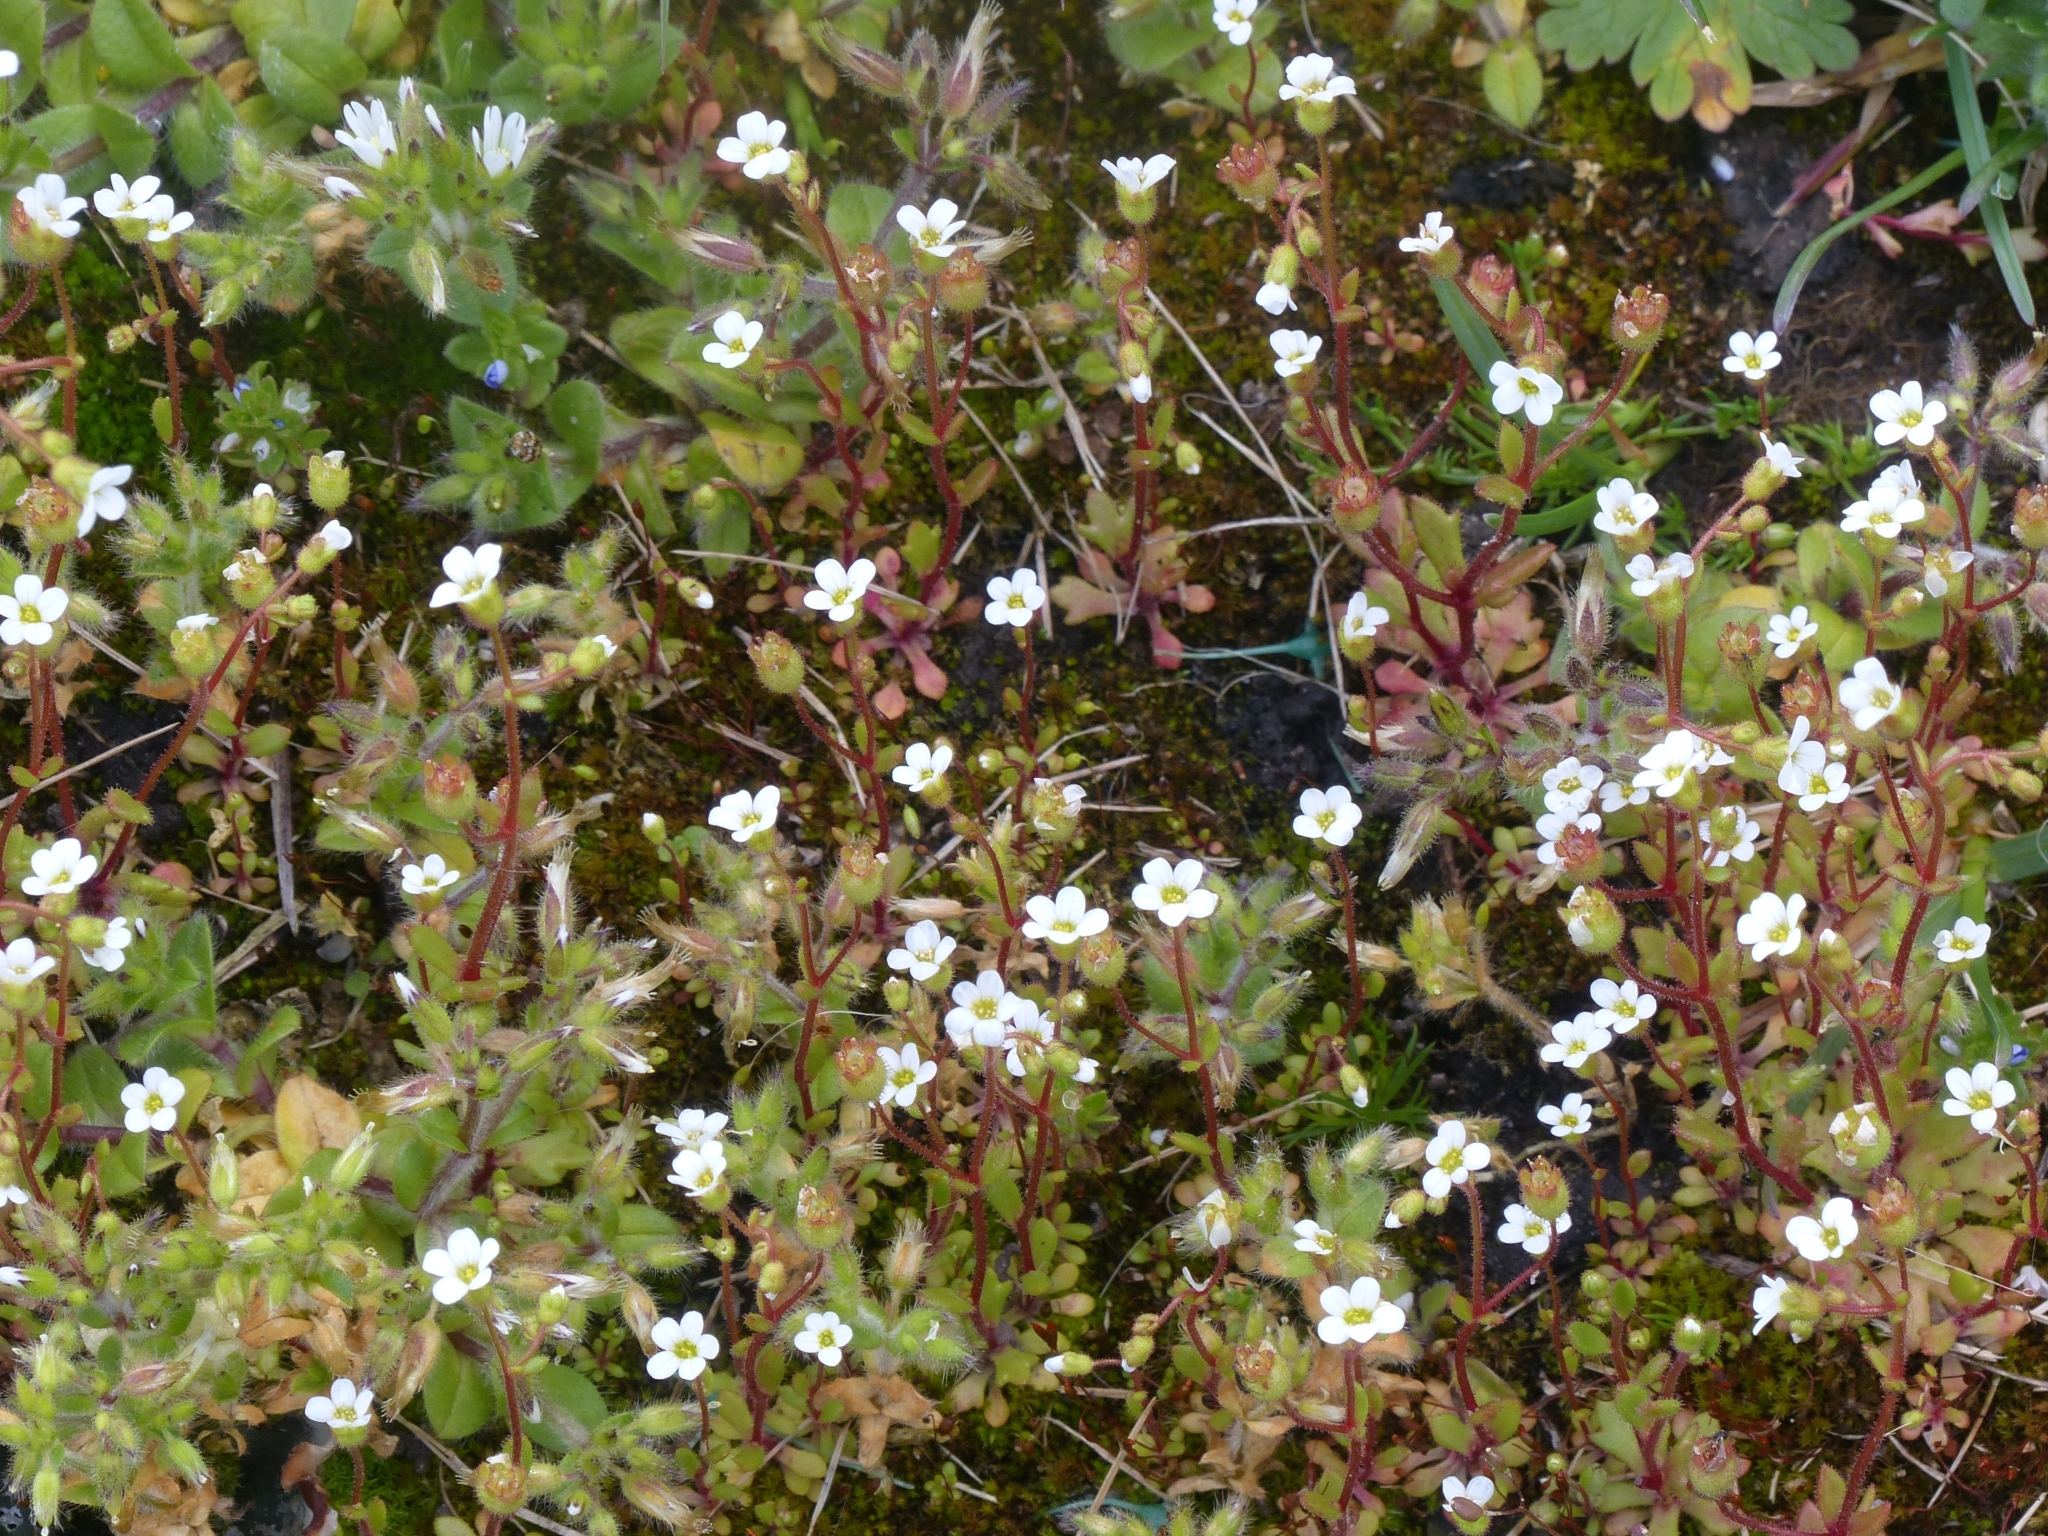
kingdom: Plantae
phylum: Tracheophyta
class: Magnoliopsida
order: Saxifragales
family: Saxifragaceae
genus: Saxifraga
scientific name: Saxifraga tridactylites
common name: Rue-leaved saxifrage
